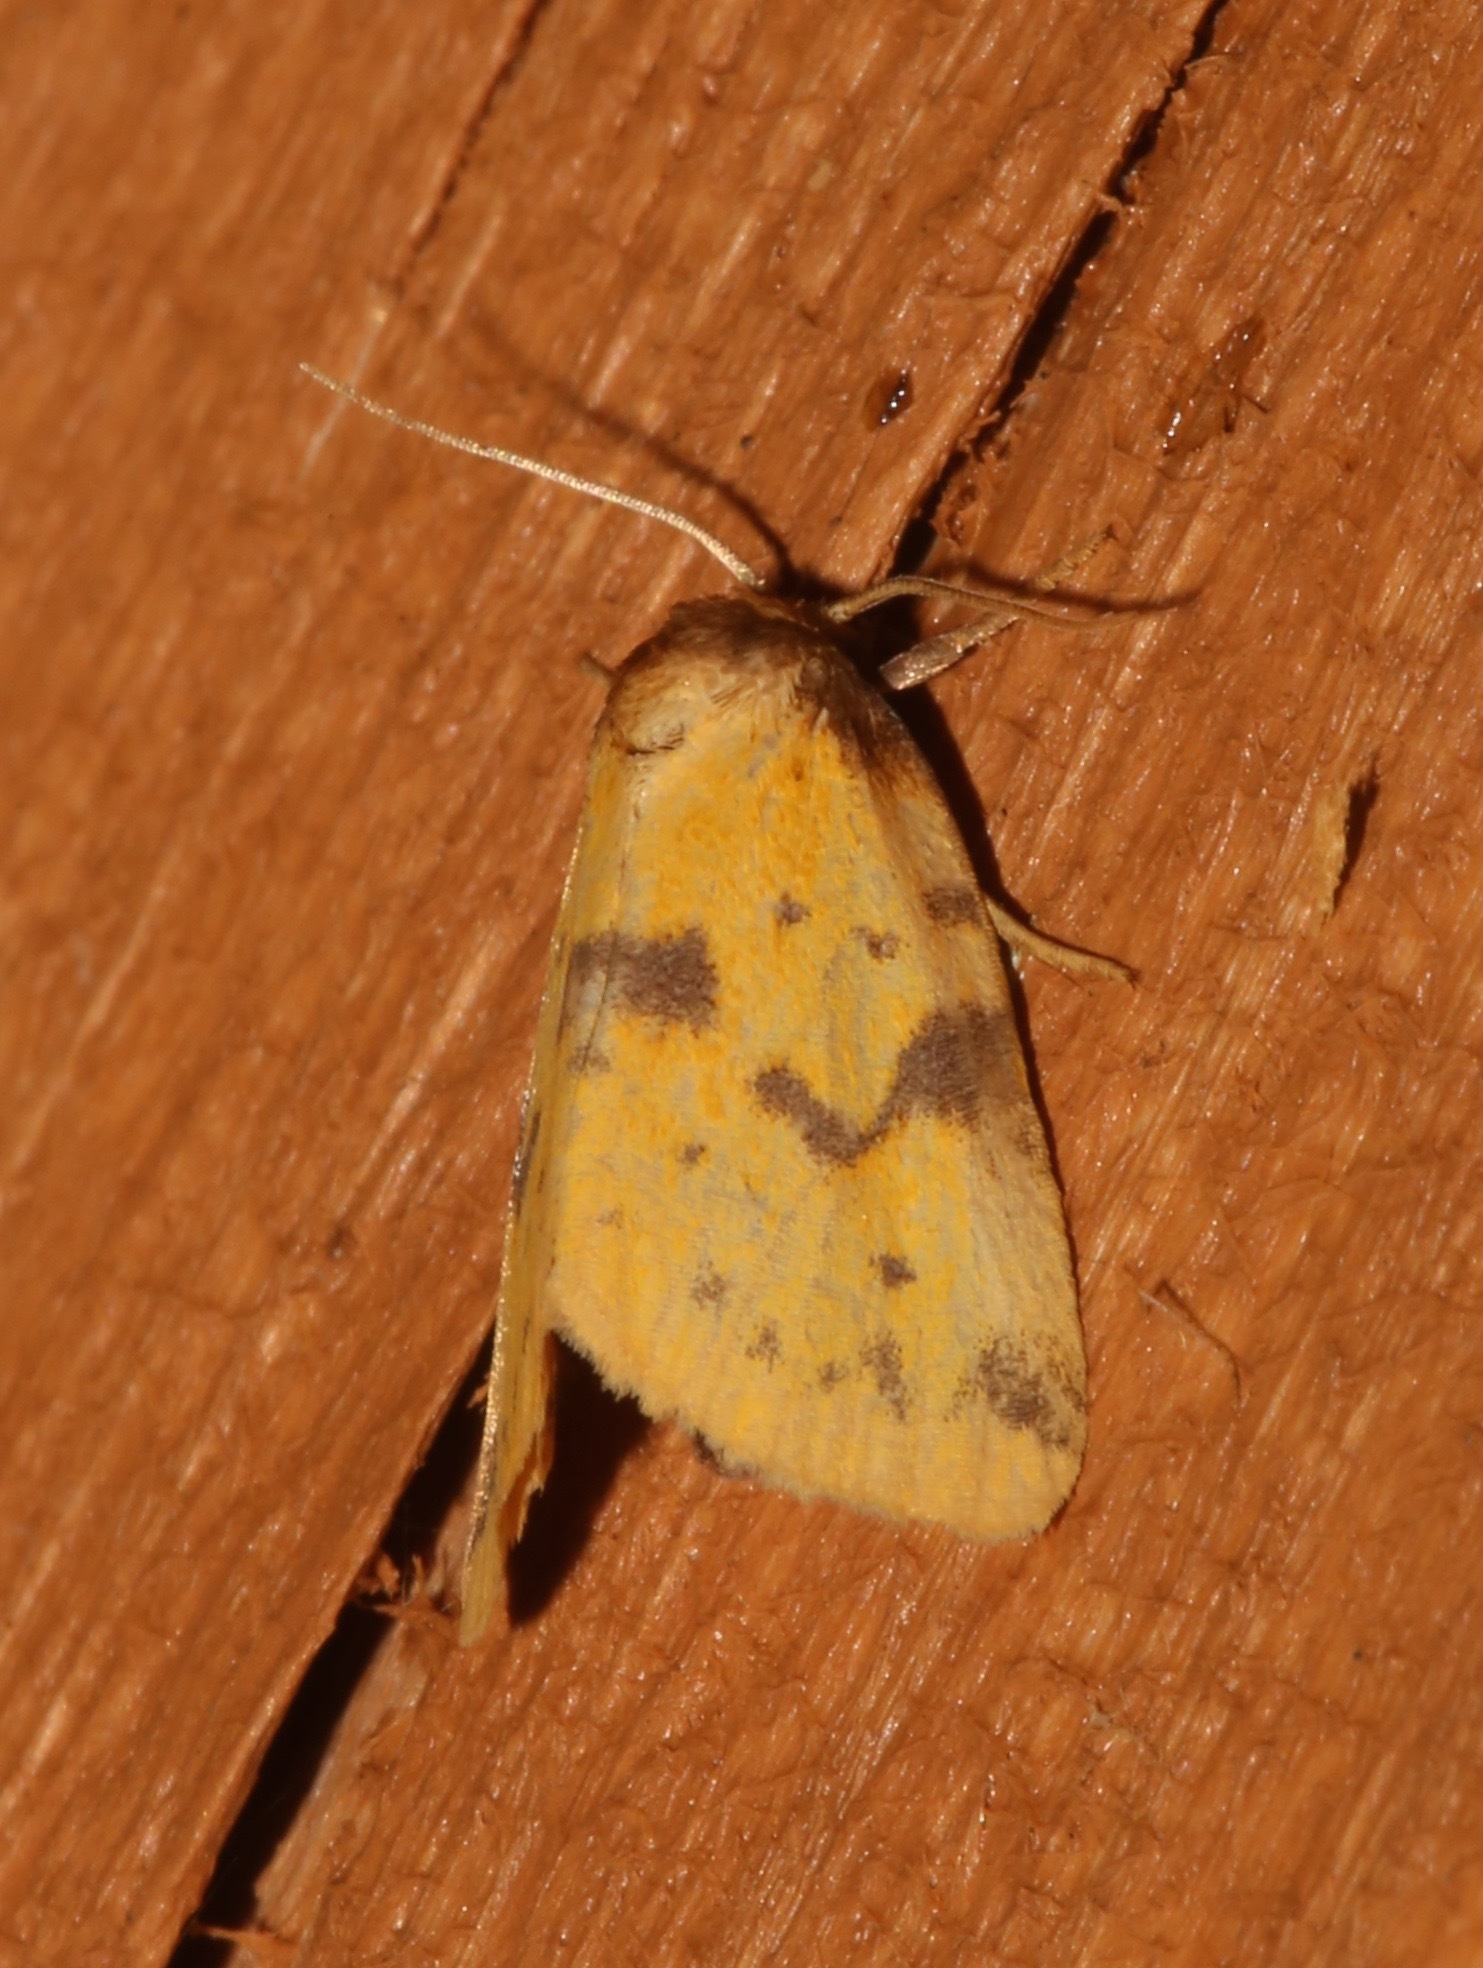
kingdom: Animalia
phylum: Arthropoda
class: Insecta
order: Lepidoptera
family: Noctuidae
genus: Azenia
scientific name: Azenia obtusa
